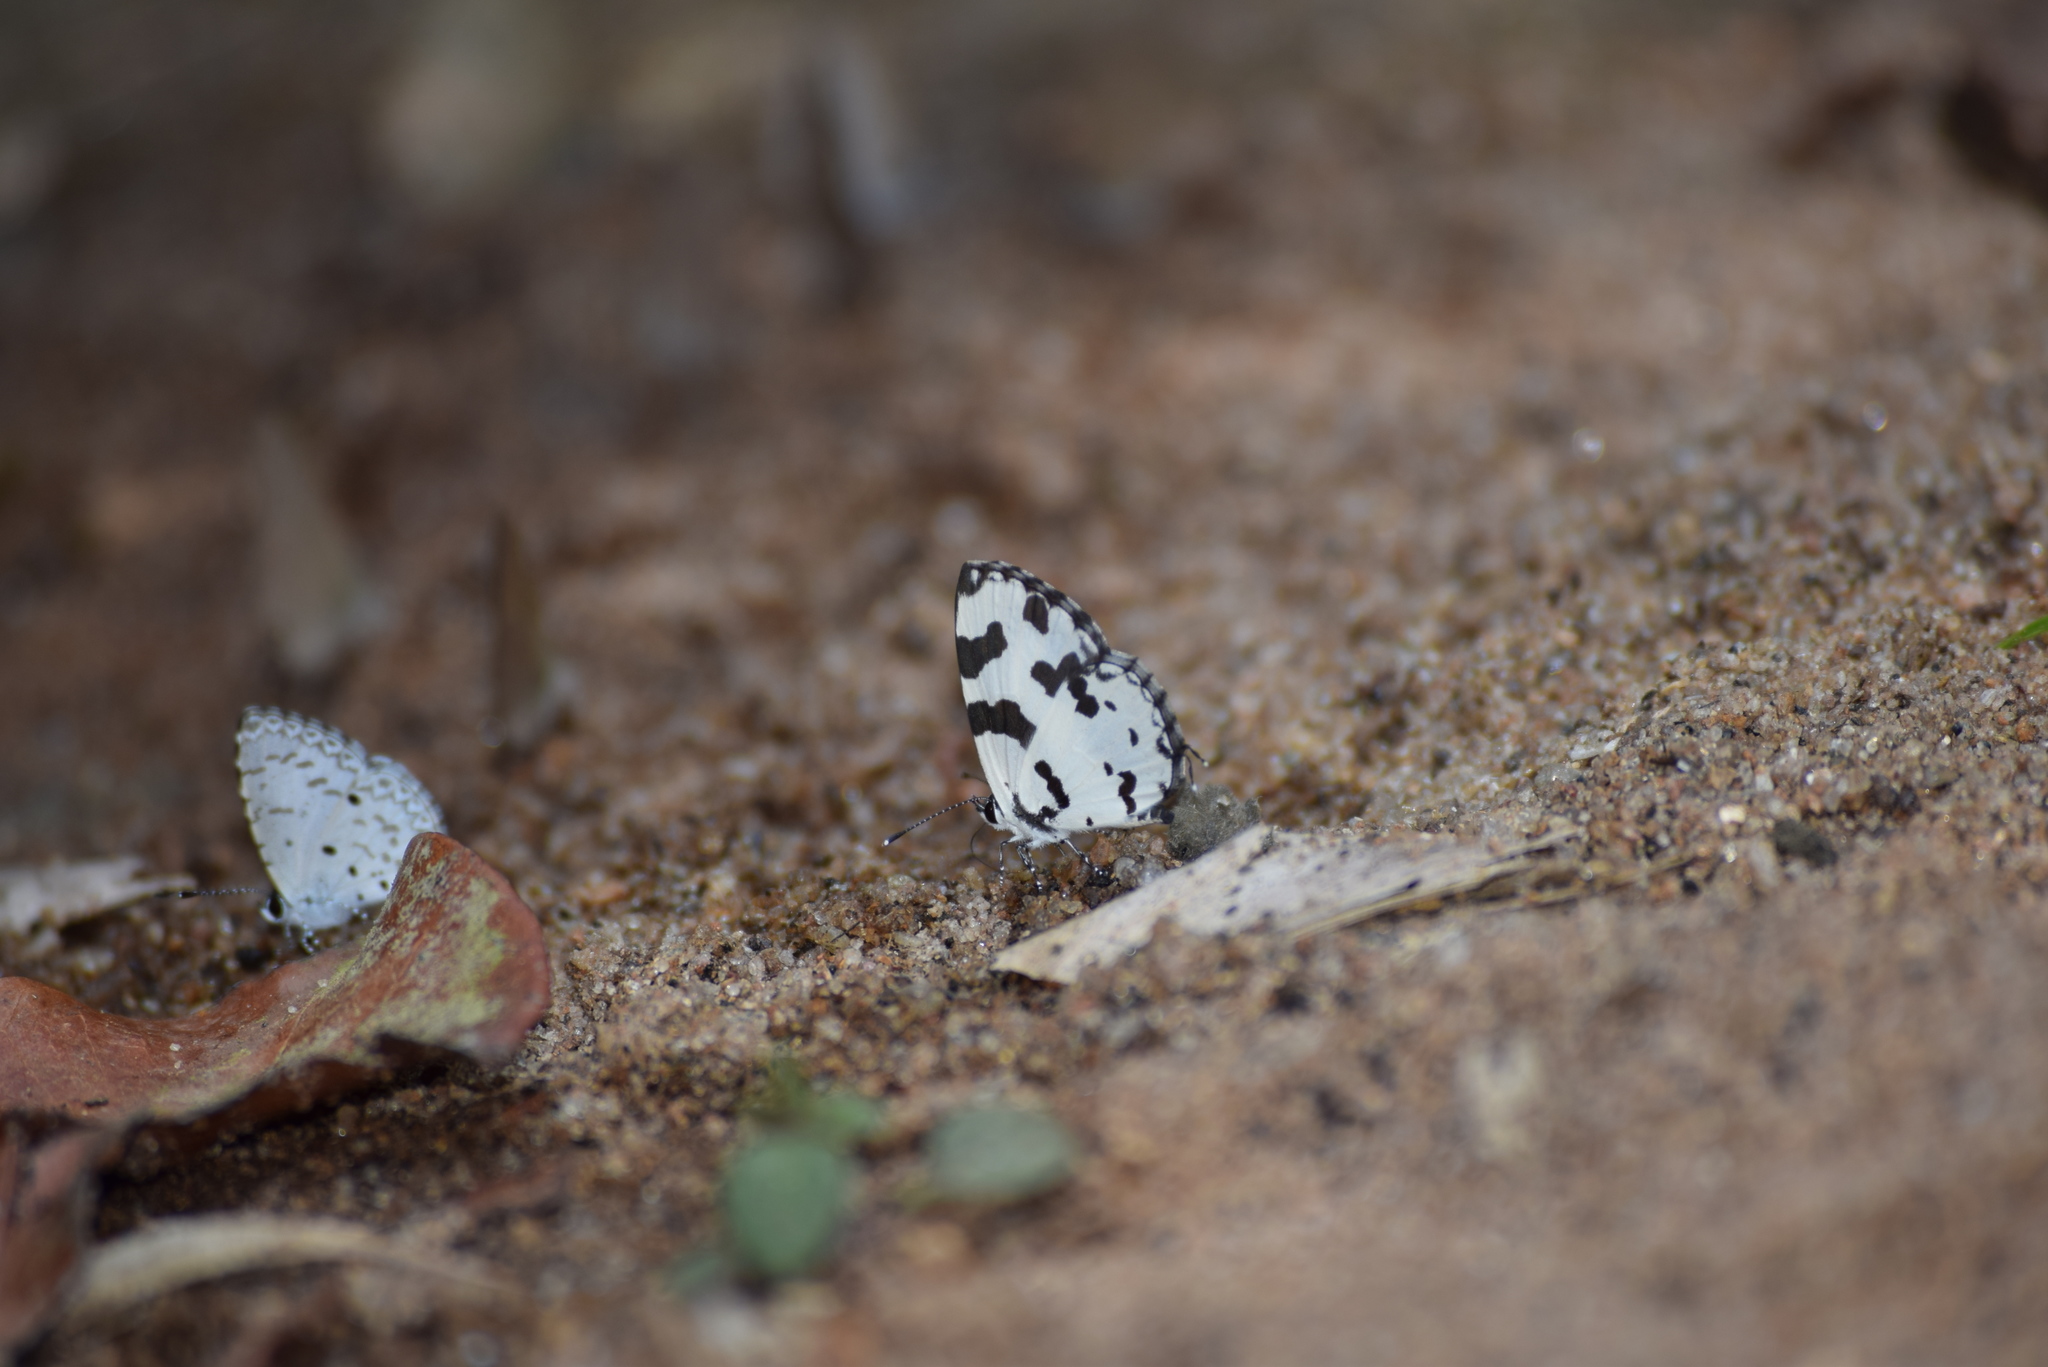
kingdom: Animalia
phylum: Arthropoda
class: Insecta
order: Lepidoptera
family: Lycaenidae
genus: Caleta
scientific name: Caleta decidia
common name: Angled pierrot
